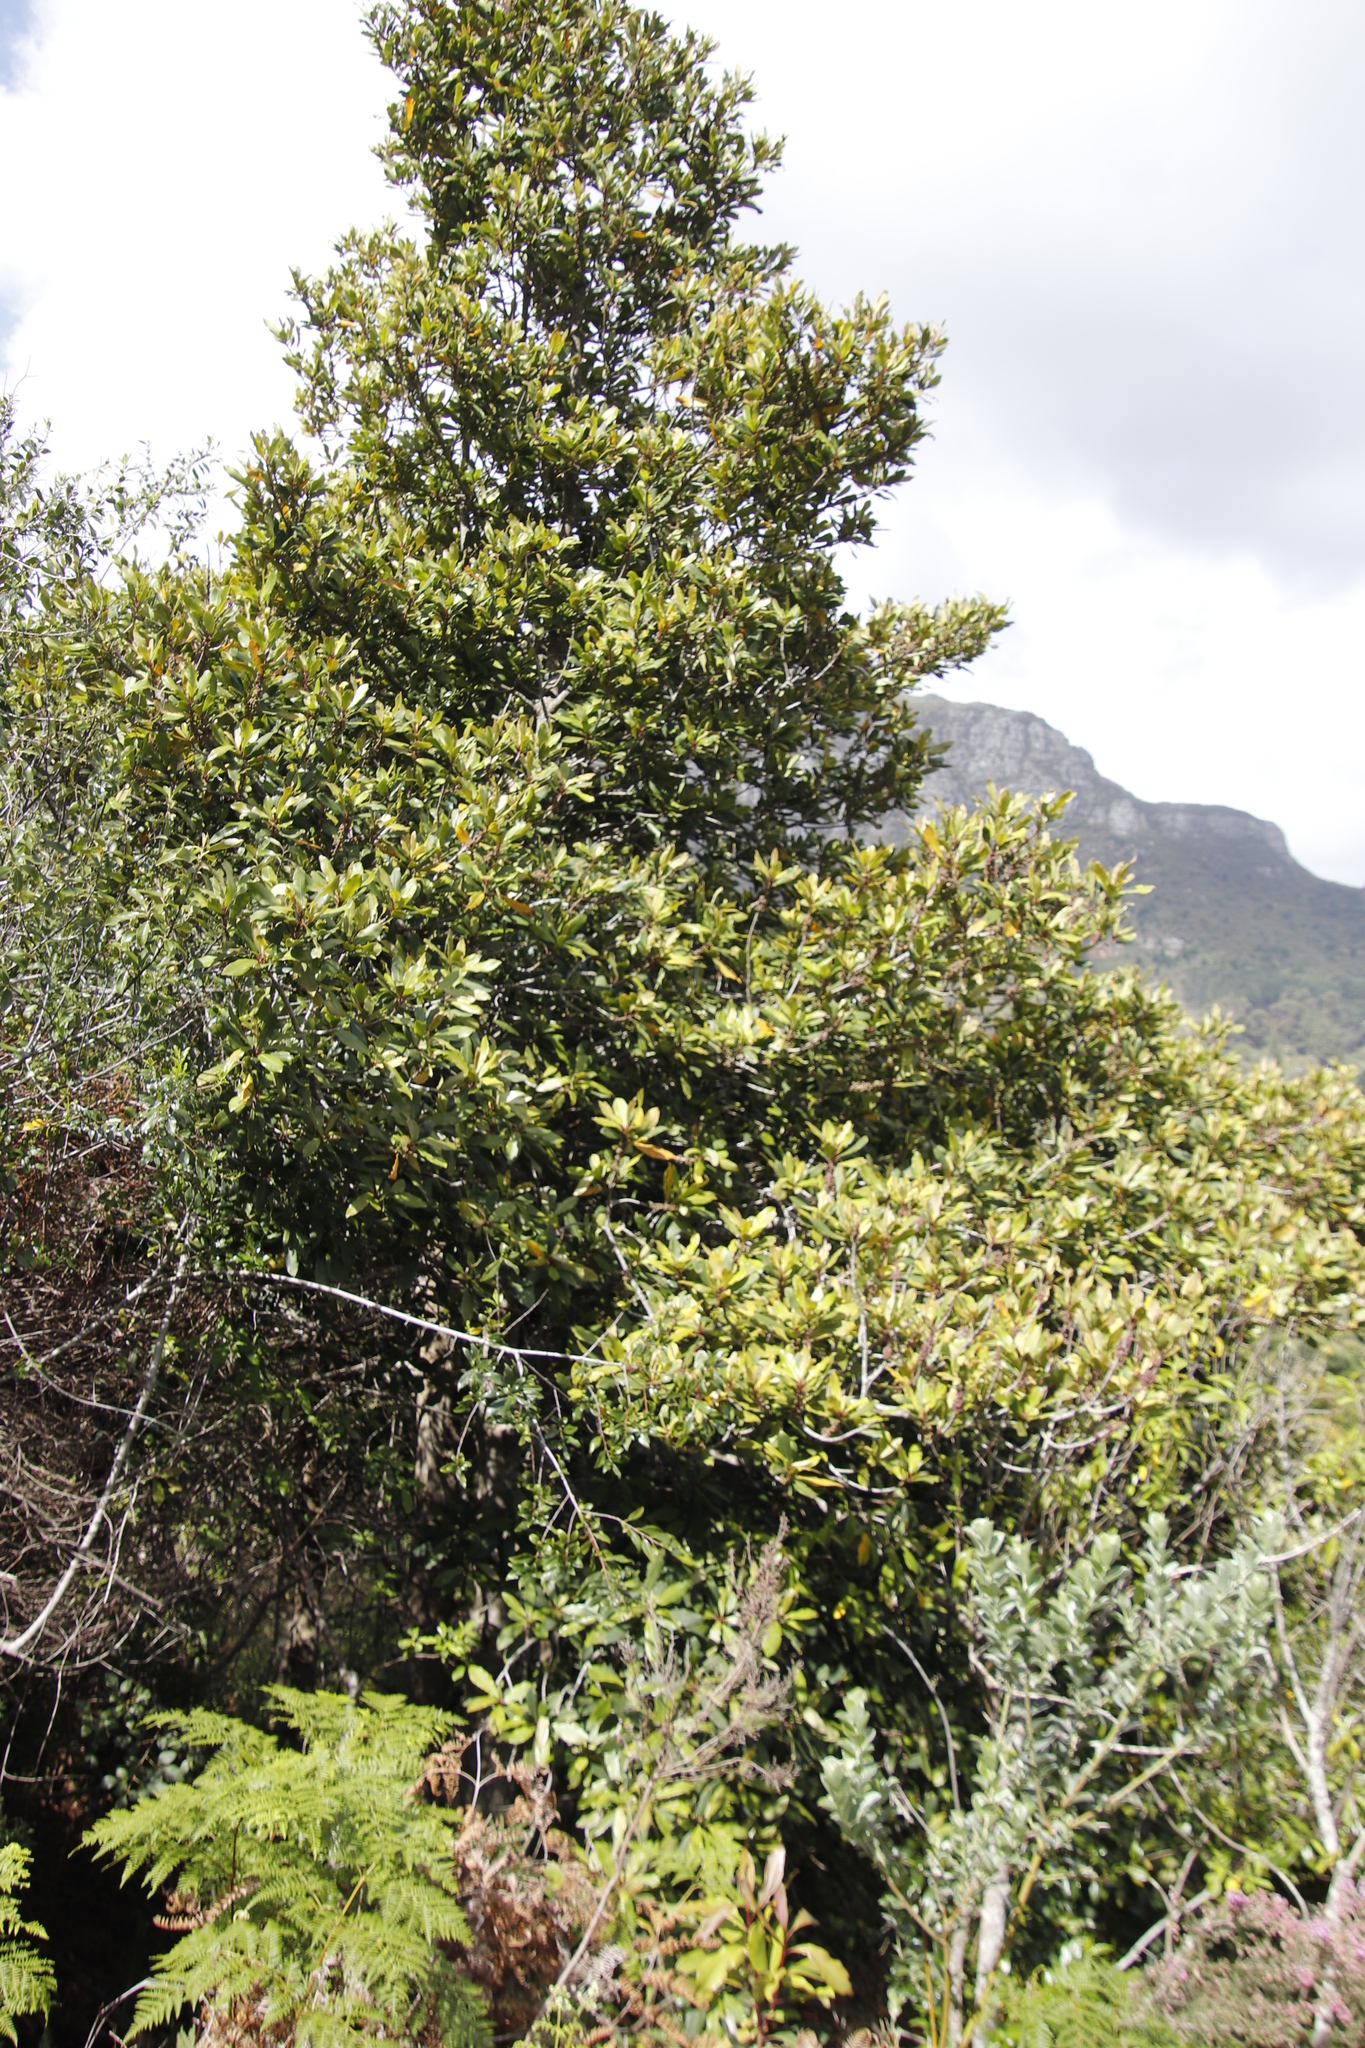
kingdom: Plantae
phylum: Tracheophyta
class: Magnoliopsida
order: Ericales
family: Primulaceae
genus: Myrsine
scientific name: Myrsine melanophloeos
